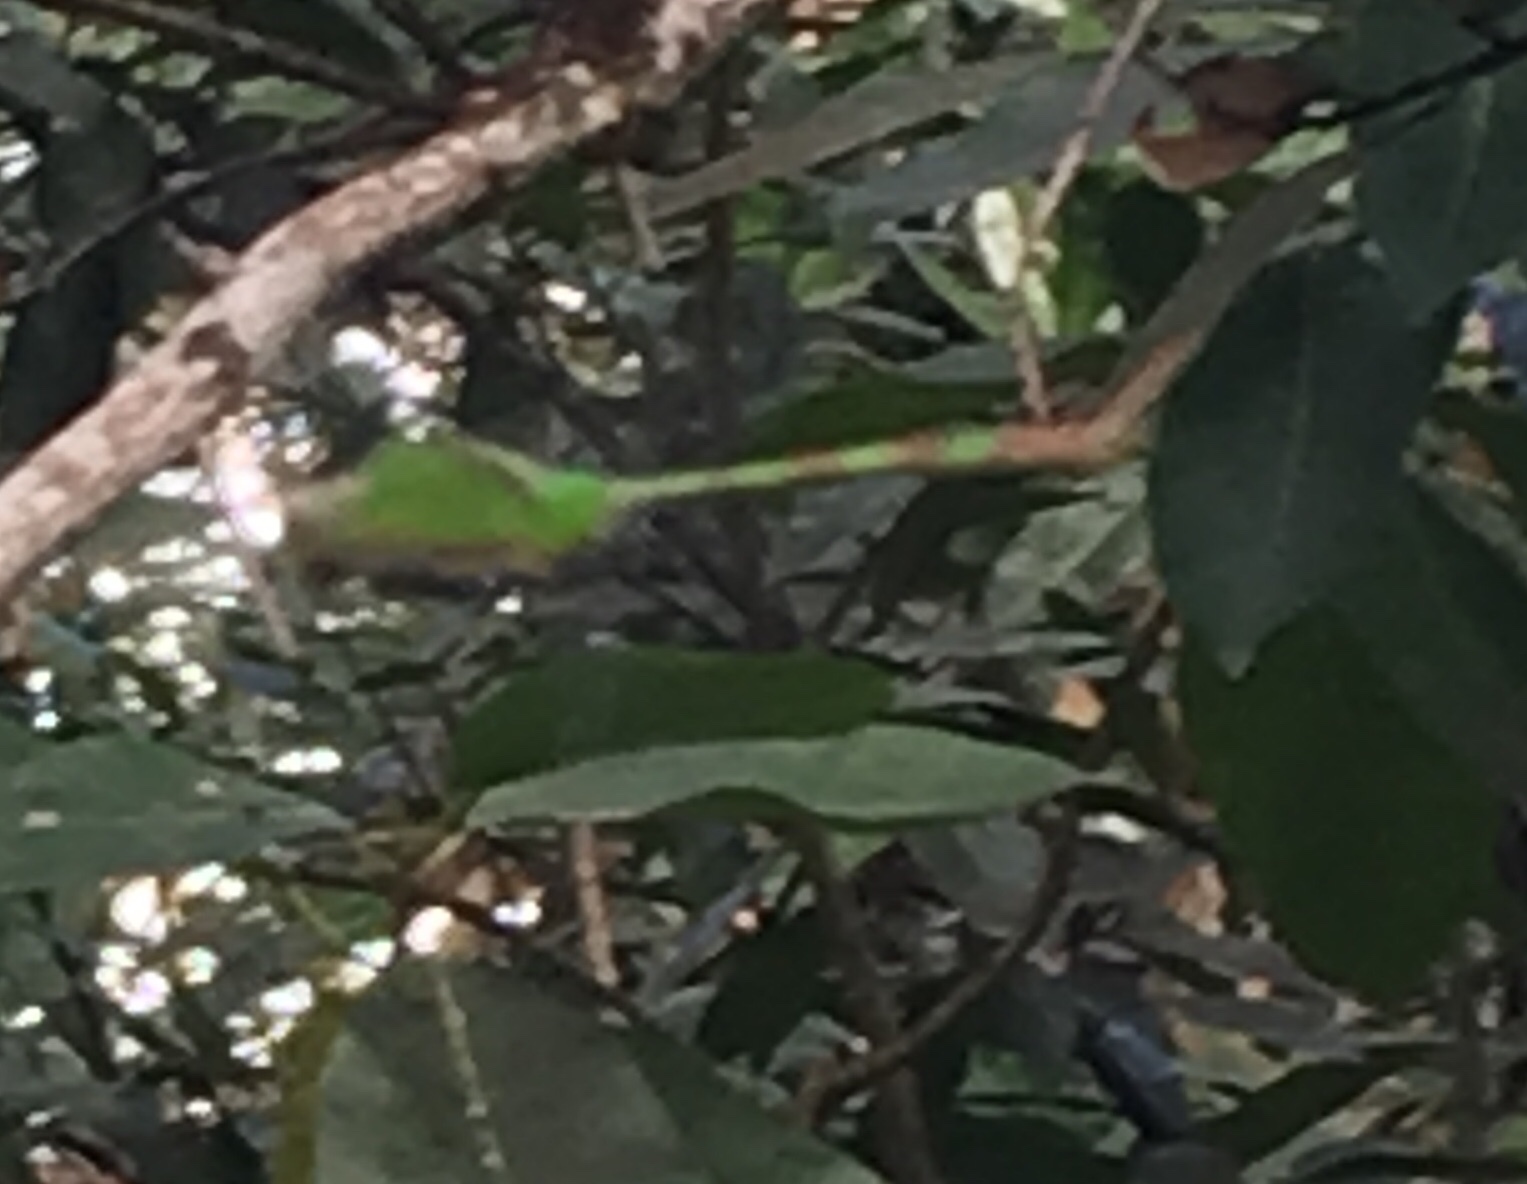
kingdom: Animalia
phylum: Arthropoda
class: Insecta
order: Odonata
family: Libellulidae
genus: Erythemis
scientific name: Erythemis vesiculosa
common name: Great pondhawk
